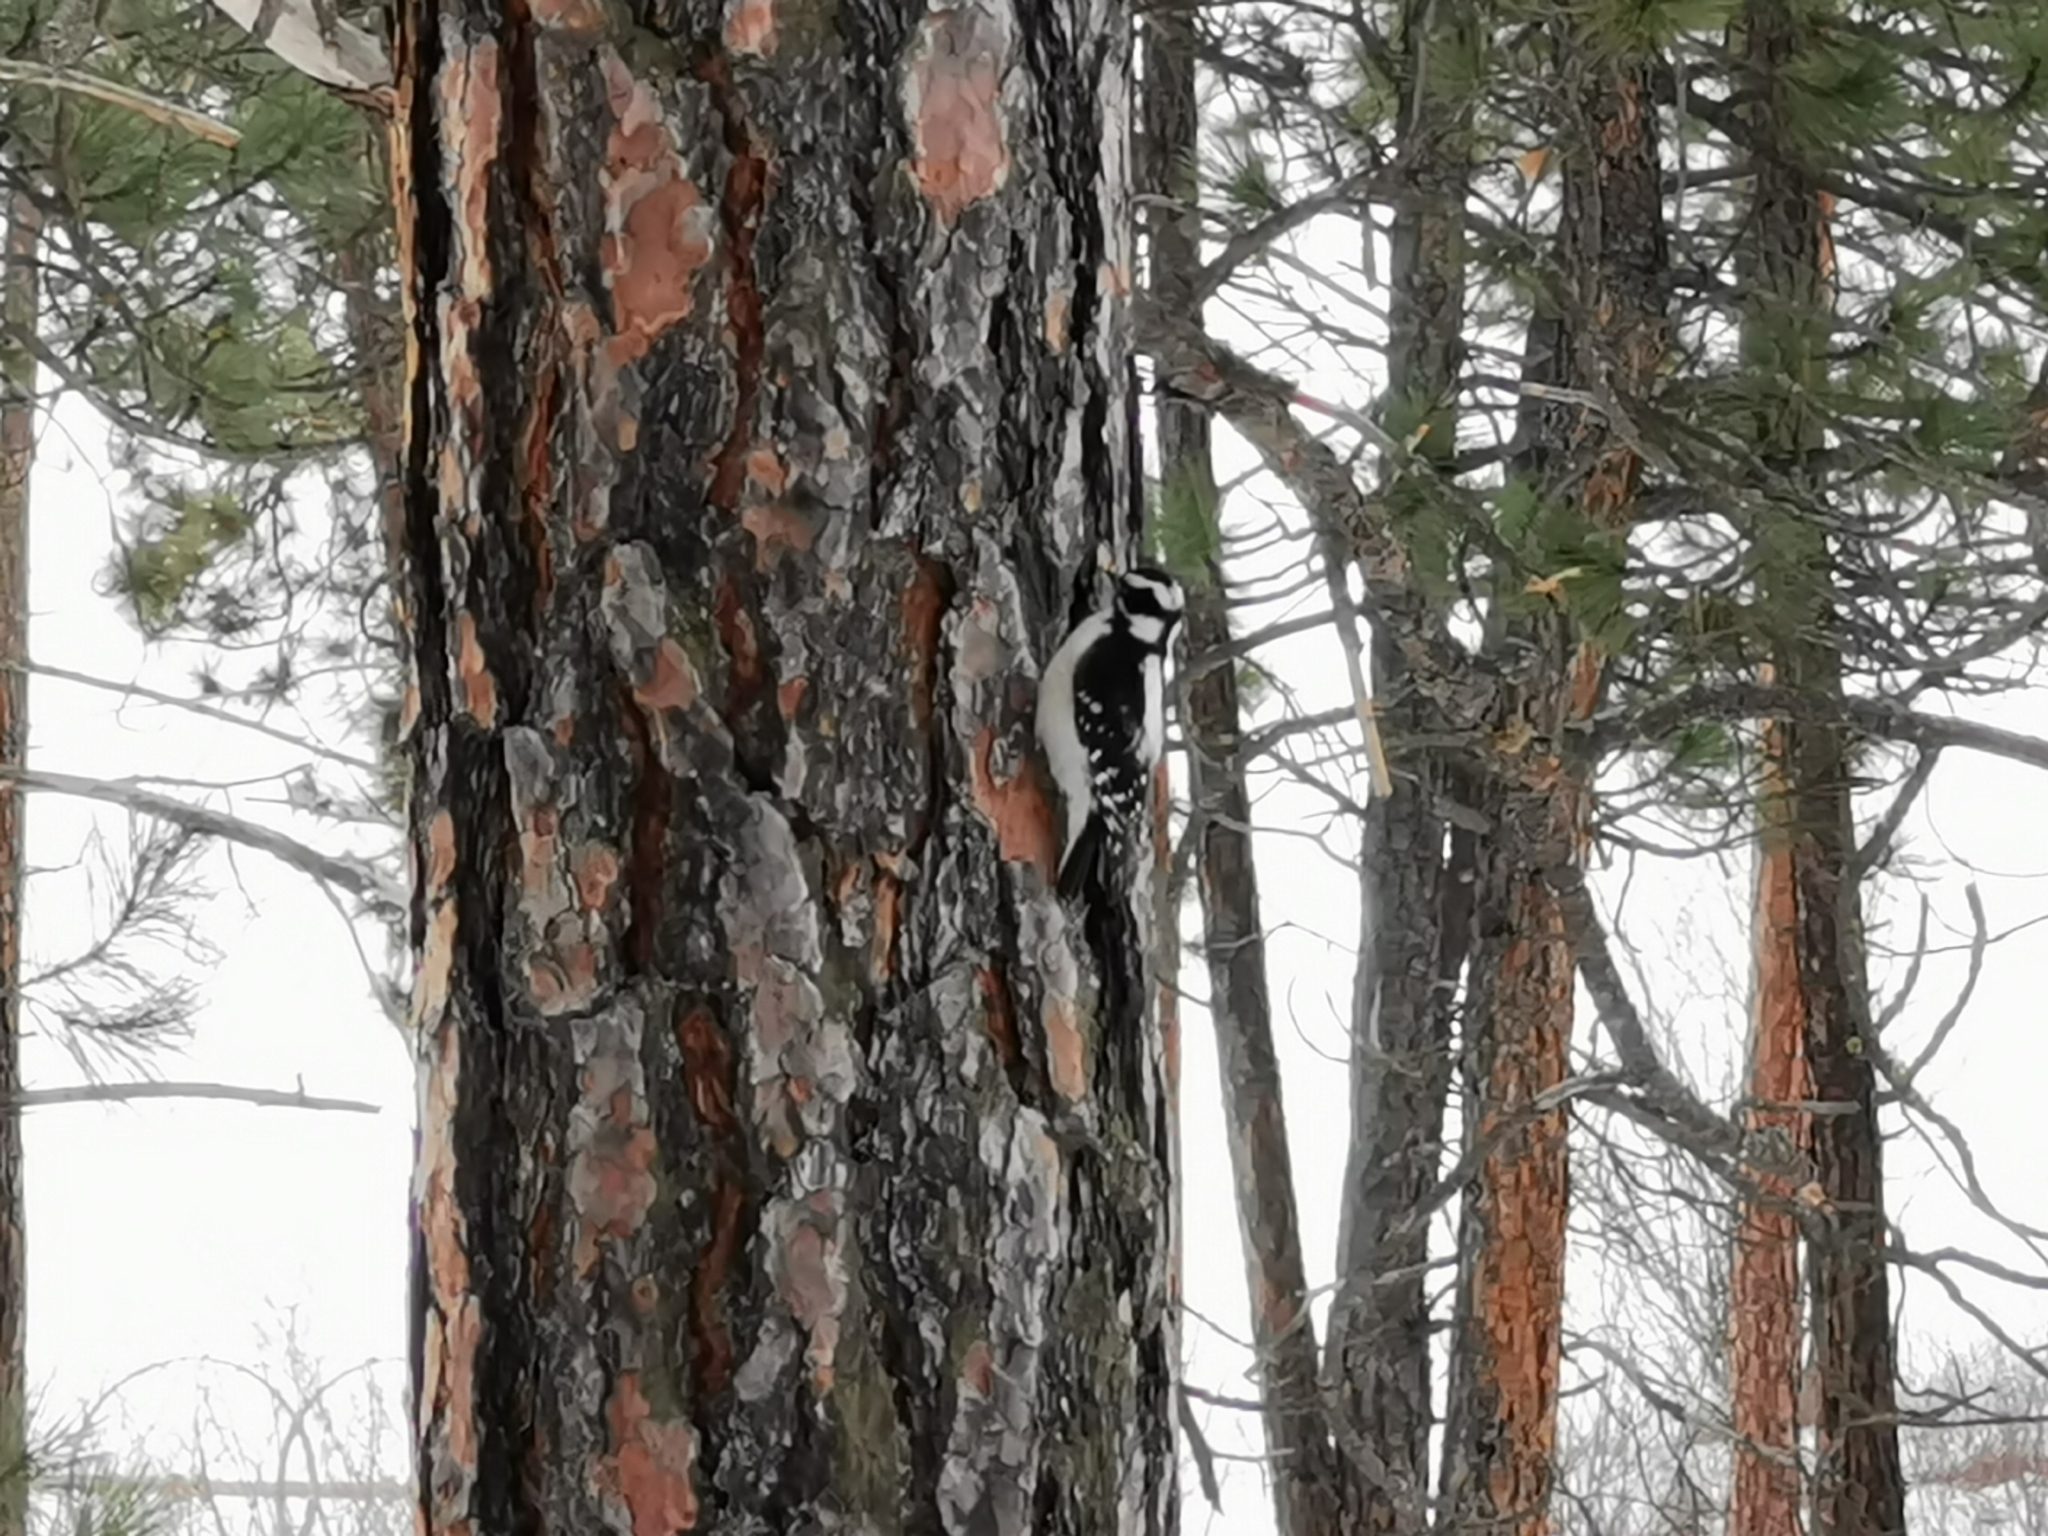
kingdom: Animalia
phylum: Chordata
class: Aves
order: Piciformes
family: Picidae
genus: Dryobates
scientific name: Dryobates pubescens
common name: Downy woodpecker
